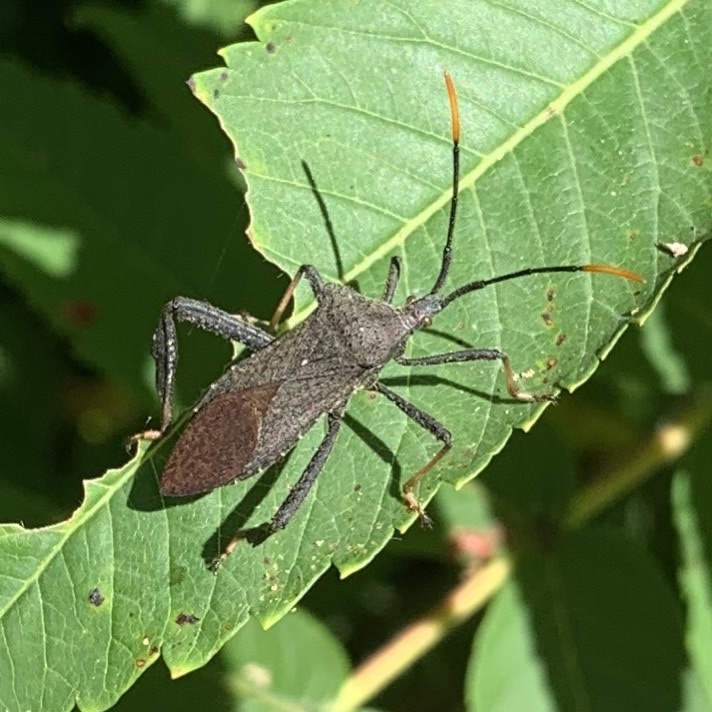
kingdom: Animalia
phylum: Arthropoda
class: Insecta
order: Hemiptera
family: Coreidae
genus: Acanthocephala
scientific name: Acanthocephala terminalis
